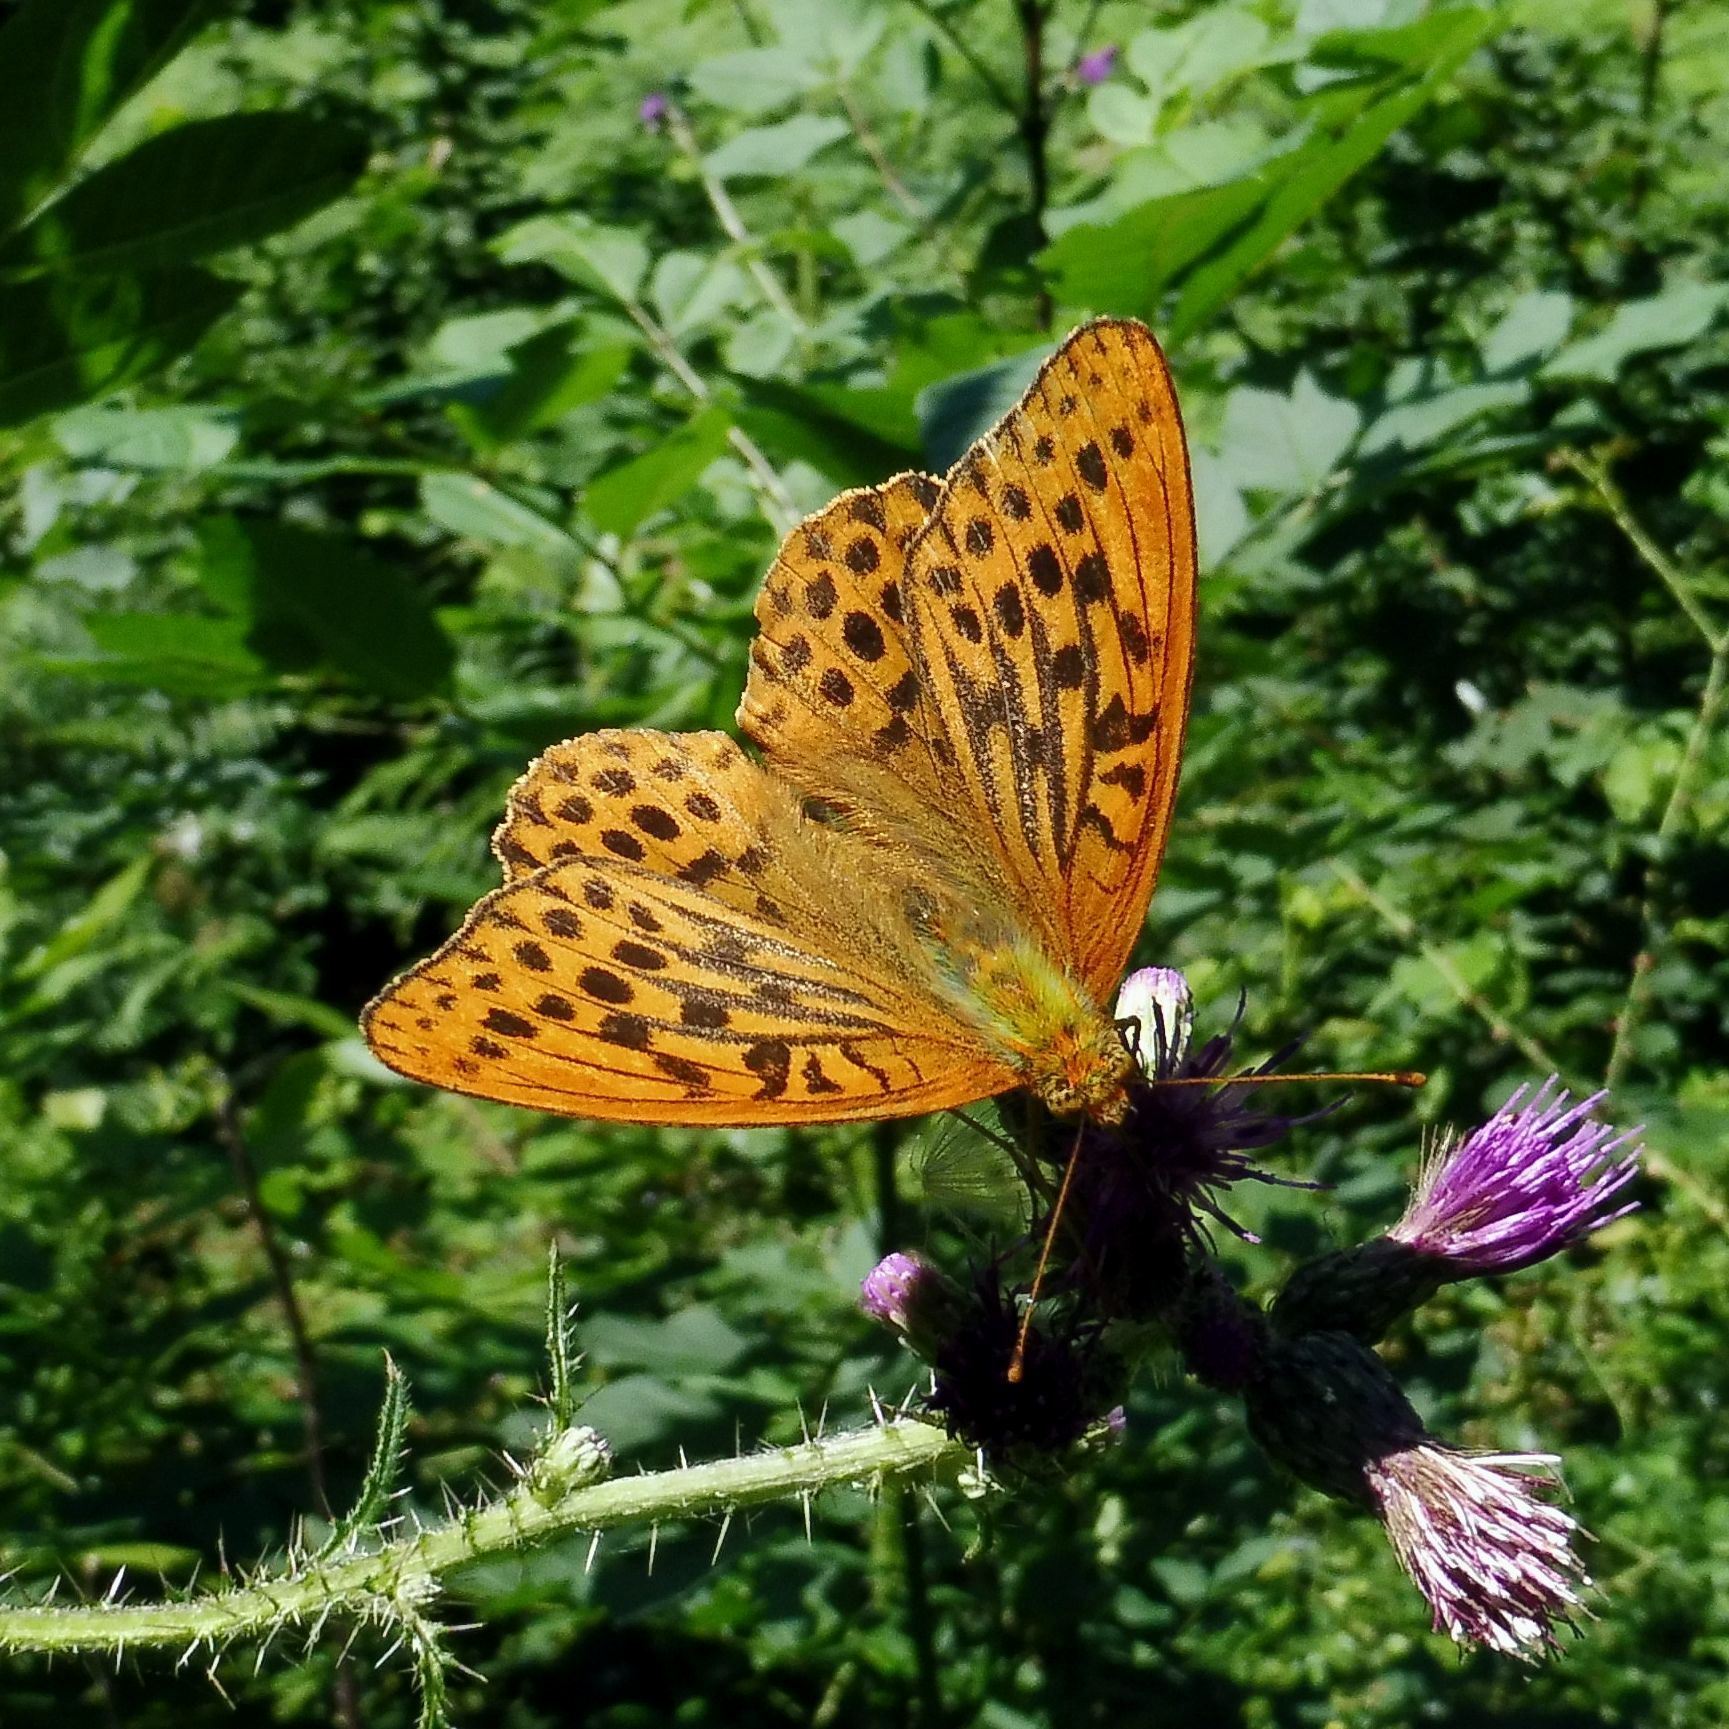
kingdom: Animalia
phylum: Arthropoda
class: Insecta
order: Lepidoptera
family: Nymphalidae
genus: Argynnis
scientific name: Argynnis paphia
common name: Silver-washed fritillary
